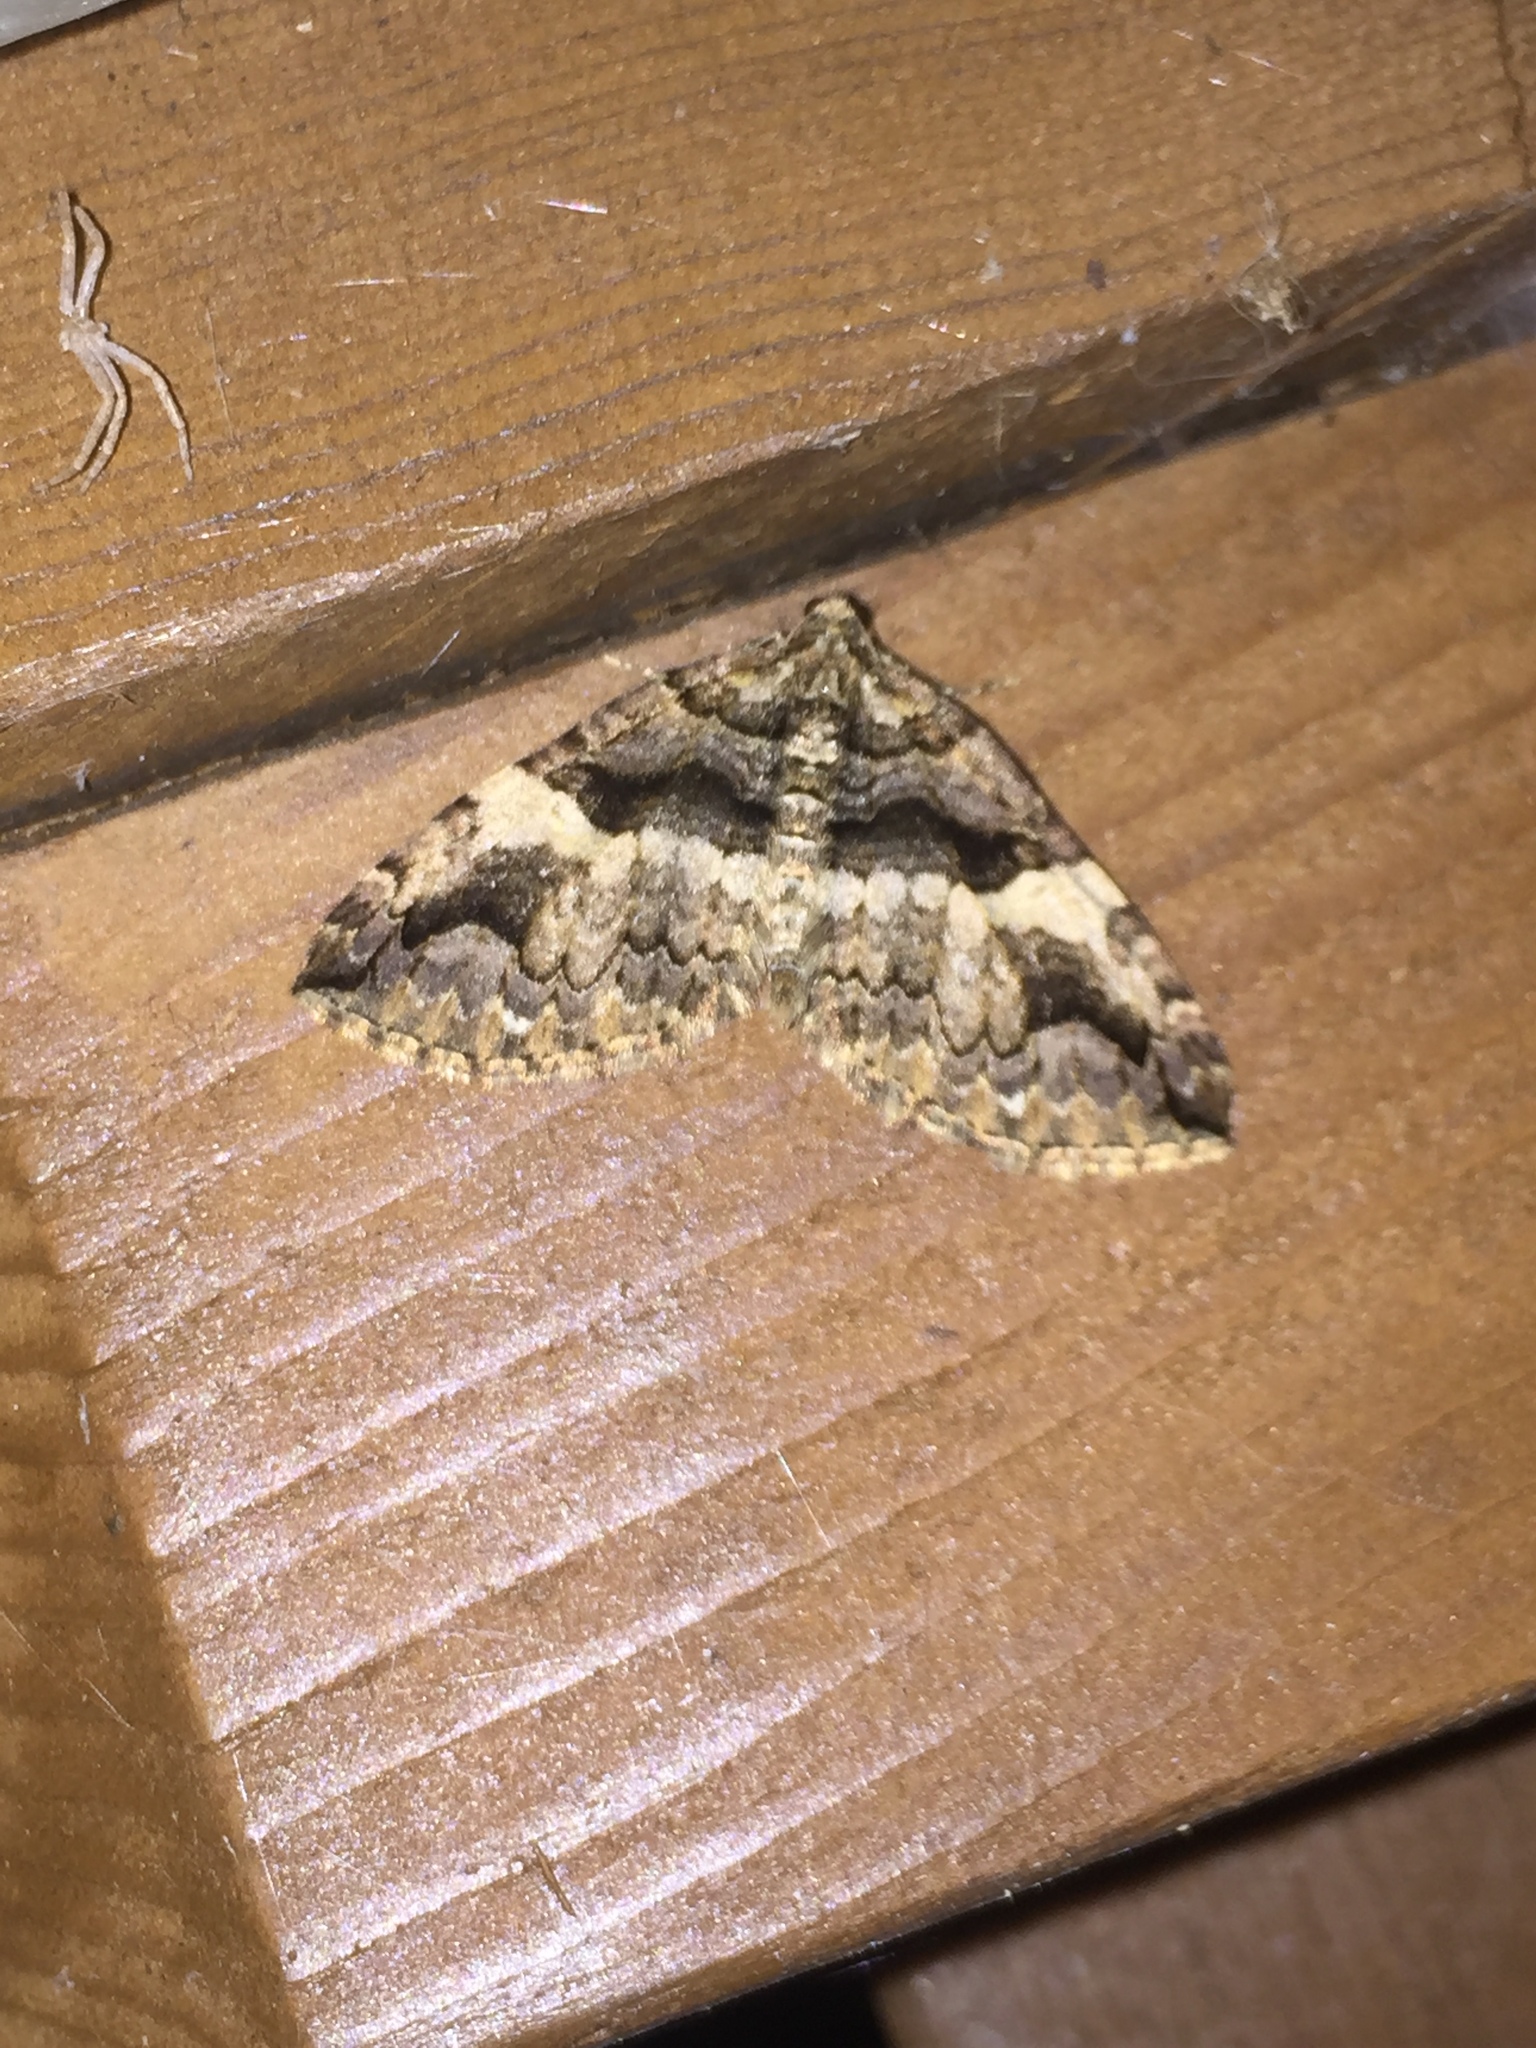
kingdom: Animalia
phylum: Arthropoda
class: Insecta
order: Lepidoptera
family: Geometridae
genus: Anticlea
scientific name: Anticlea vasiliata
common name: Variable carpet
